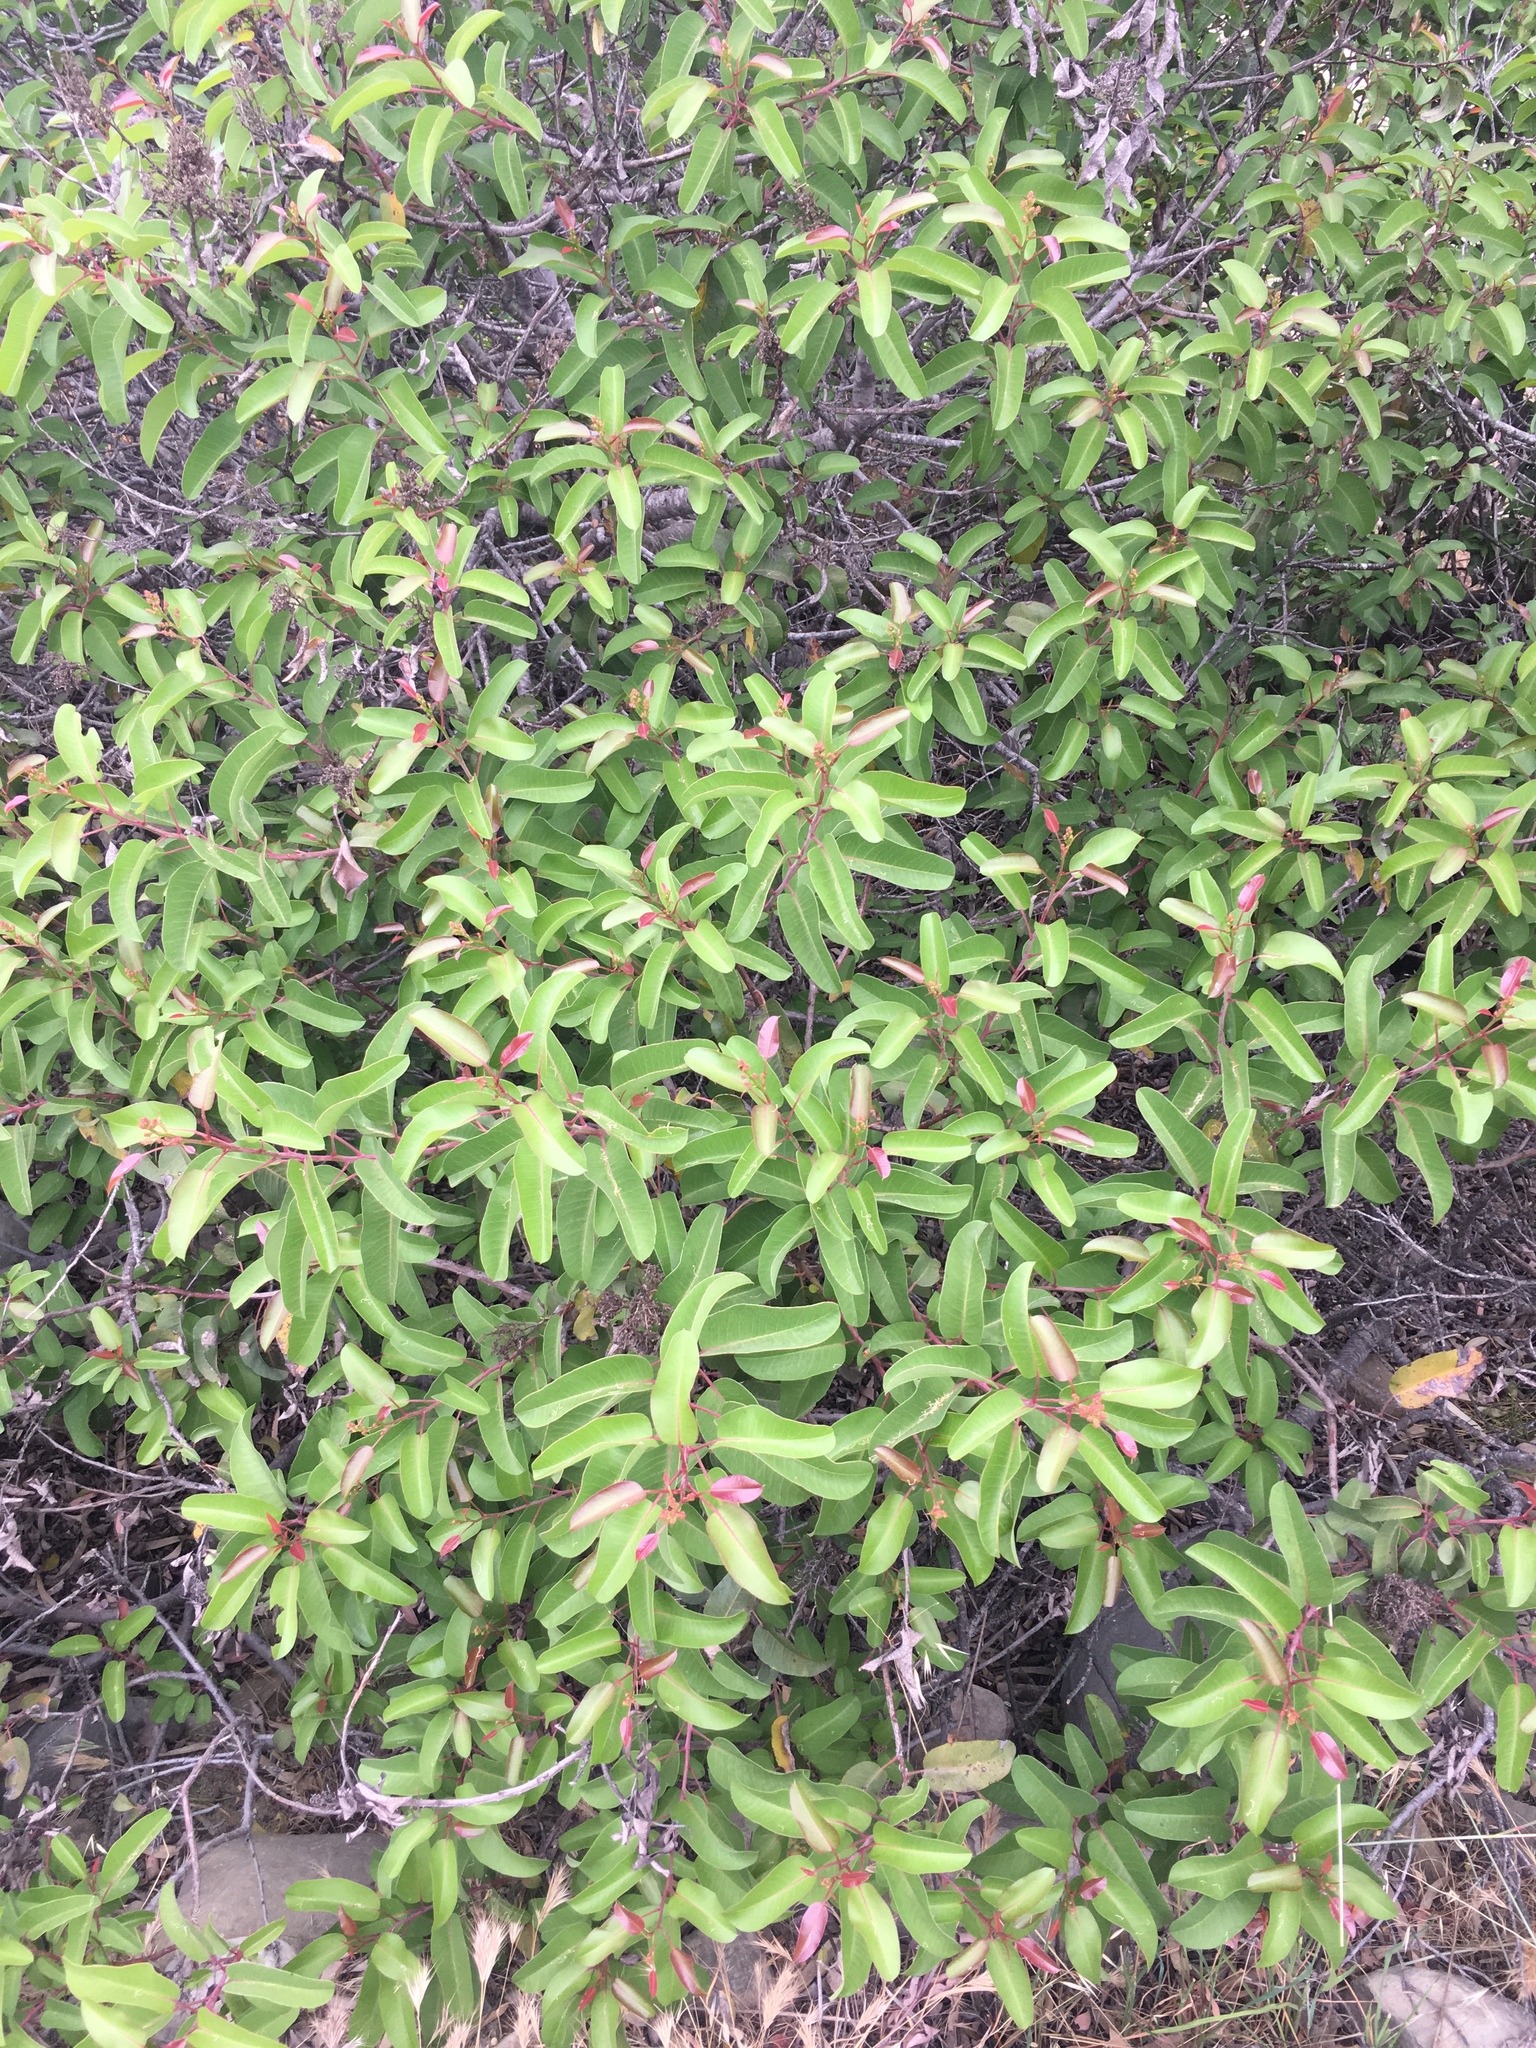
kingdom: Plantae
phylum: Tracheophyta
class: Magnoliopsida
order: Sapindales
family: Anacardiaceae
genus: Malosma
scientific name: Malosma laurina
